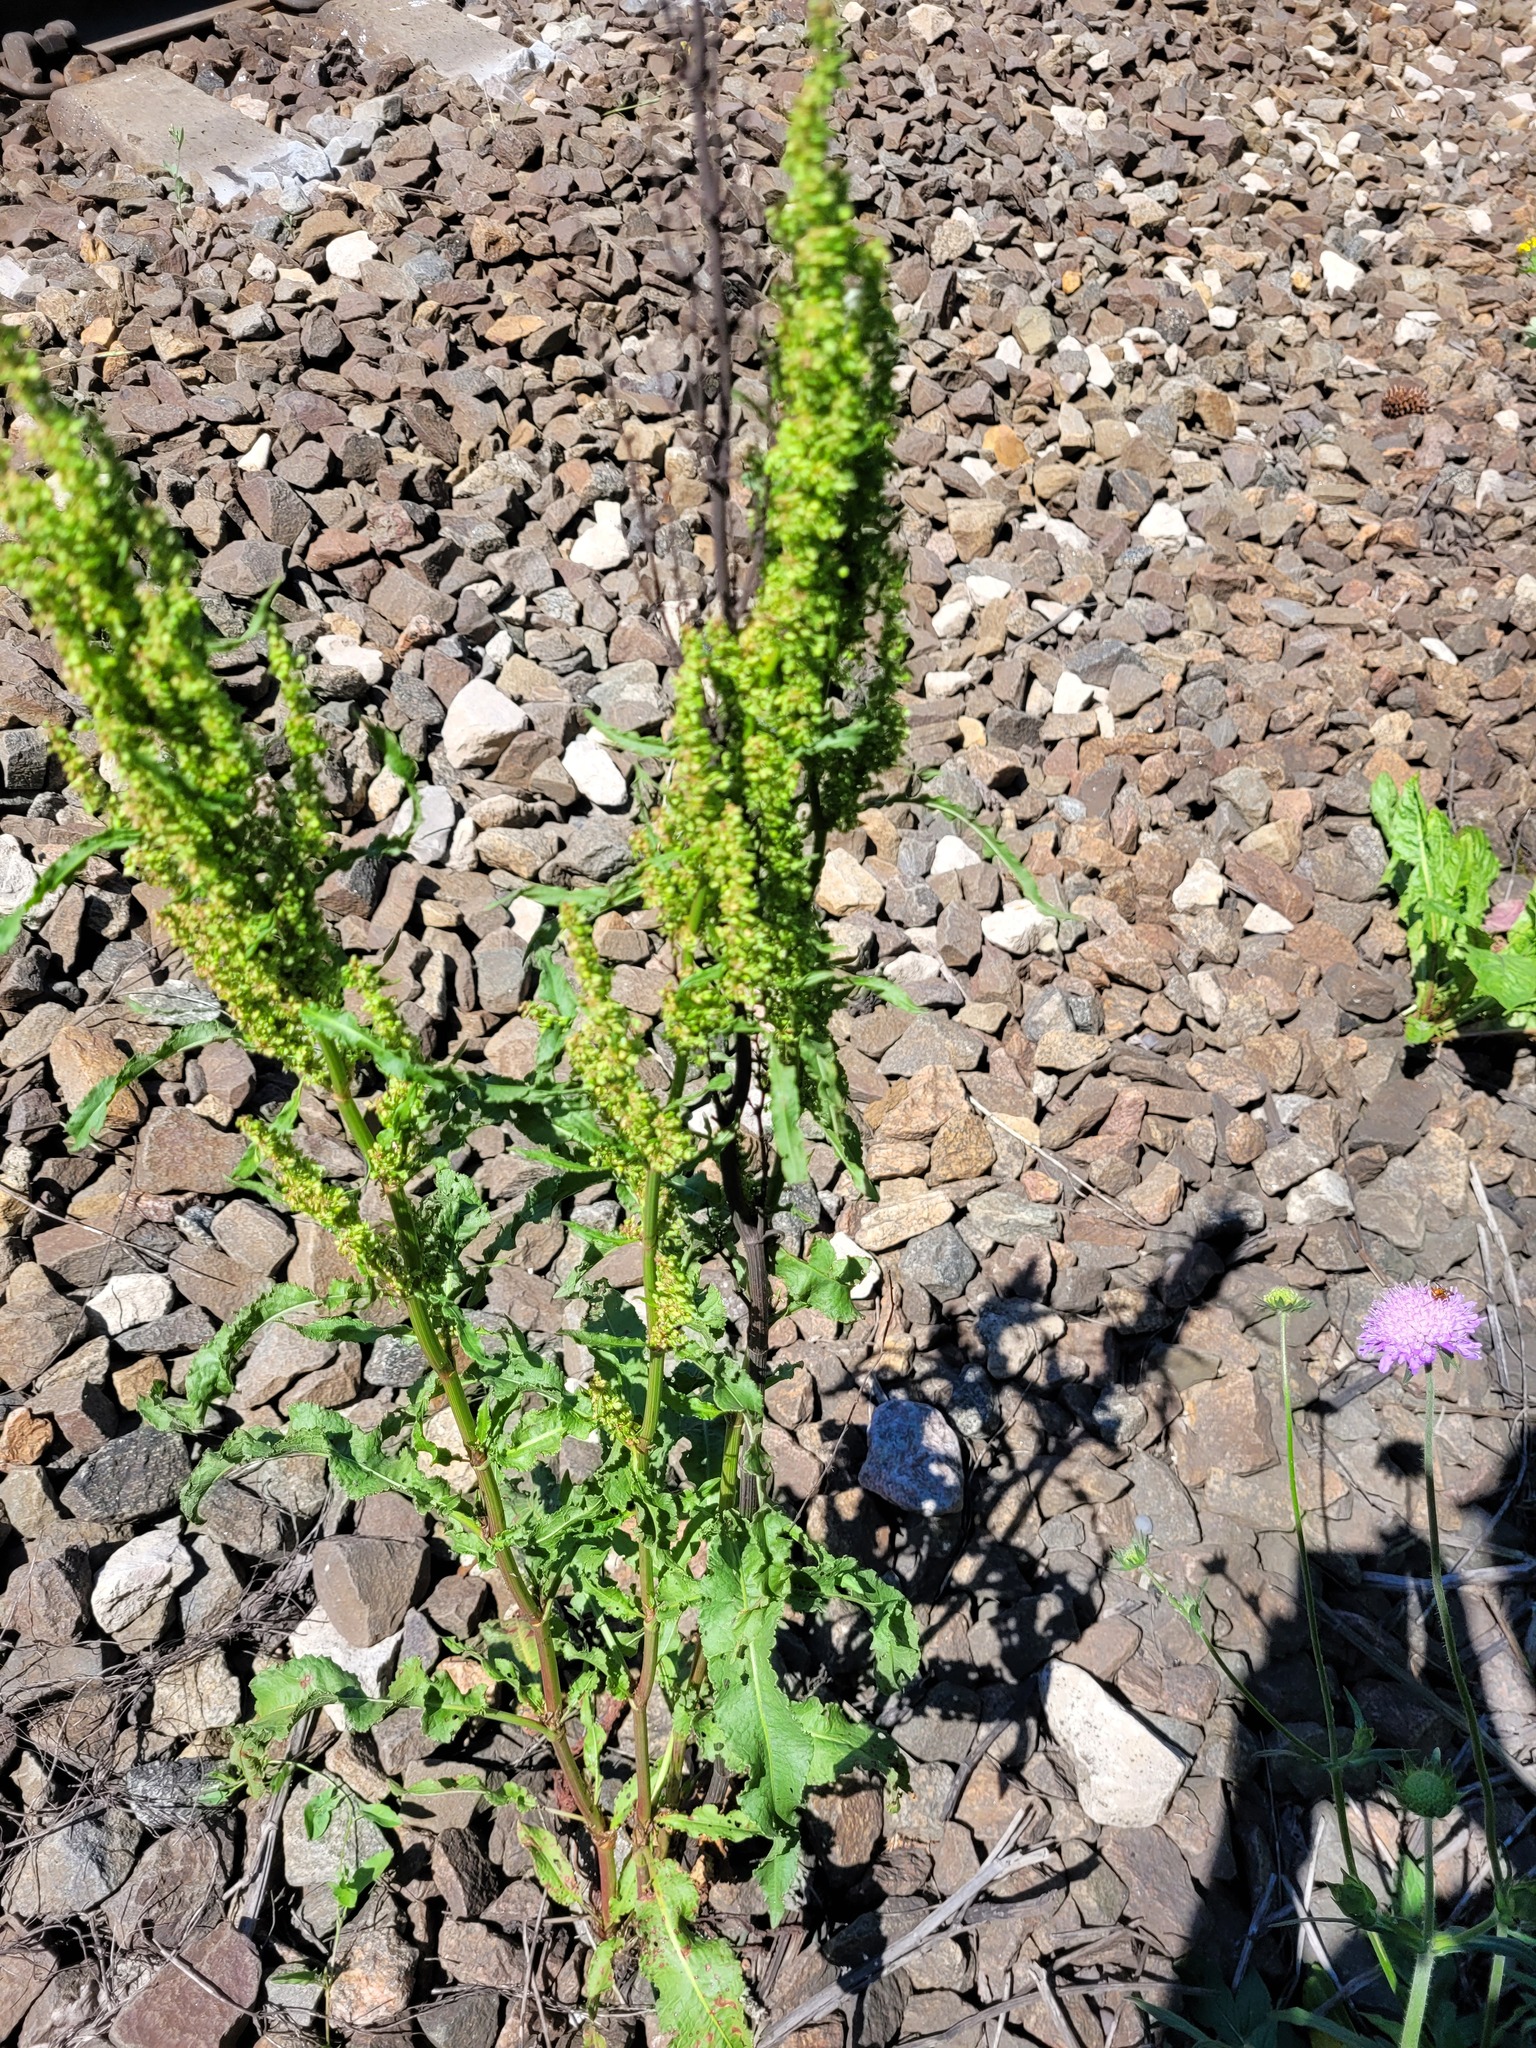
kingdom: Plantae
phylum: Tracheophyta
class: Magnoliopsida
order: Caryophyllales
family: Polygonaceae
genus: Rumex
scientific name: Rumex crispus
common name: Curled dock
